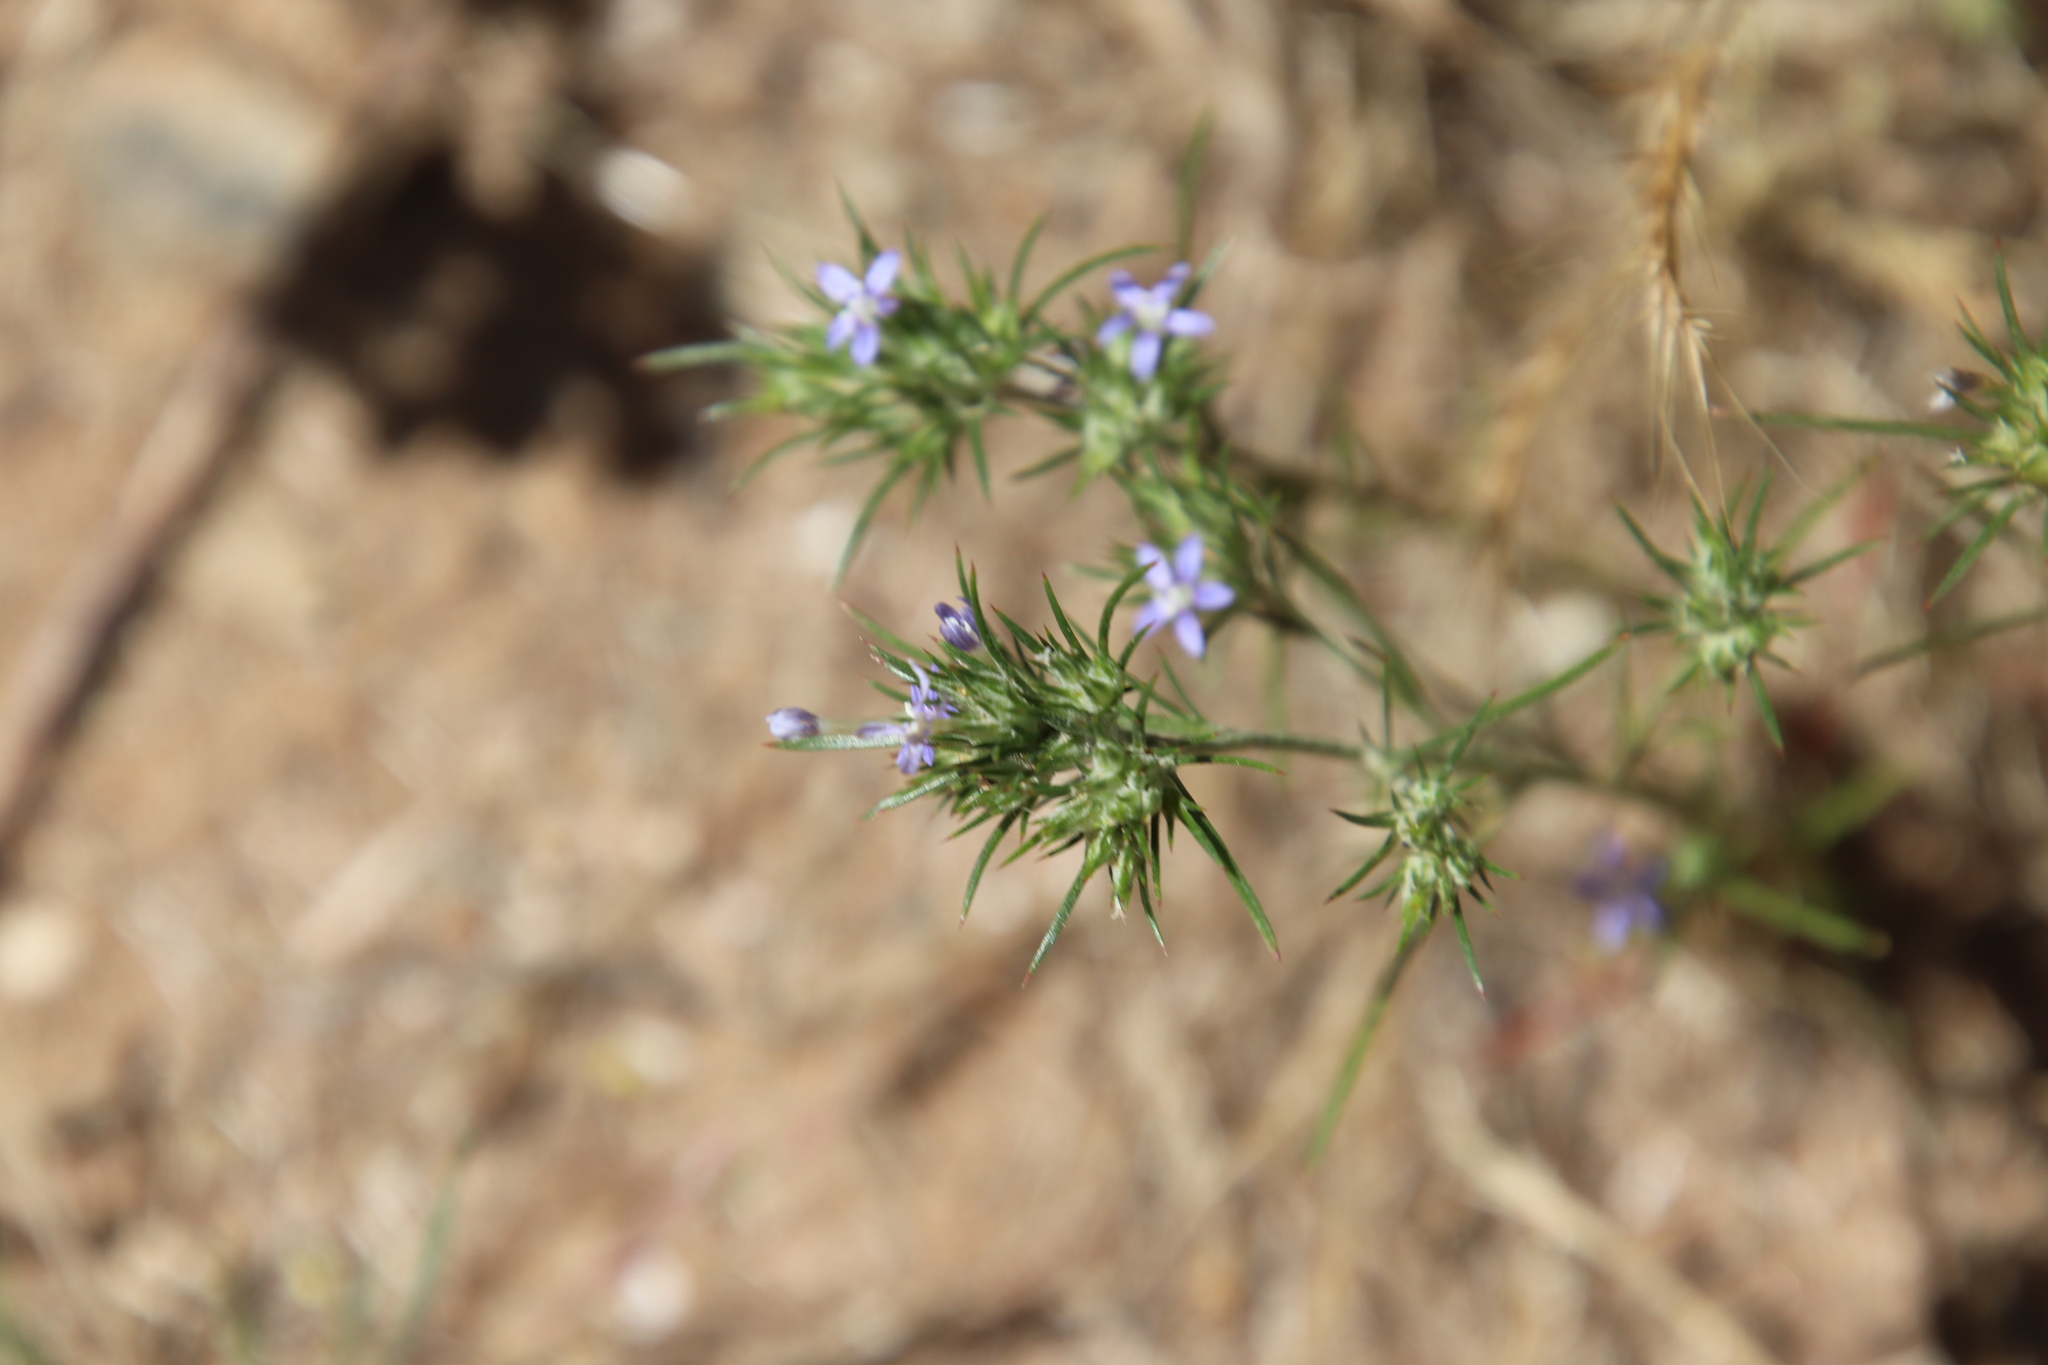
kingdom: Plantae
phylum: Tracheophyta
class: Magnoliopsida
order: Ericales
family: Polemoniaceae
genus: Eriastrum
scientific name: Eriastrum filifolium
